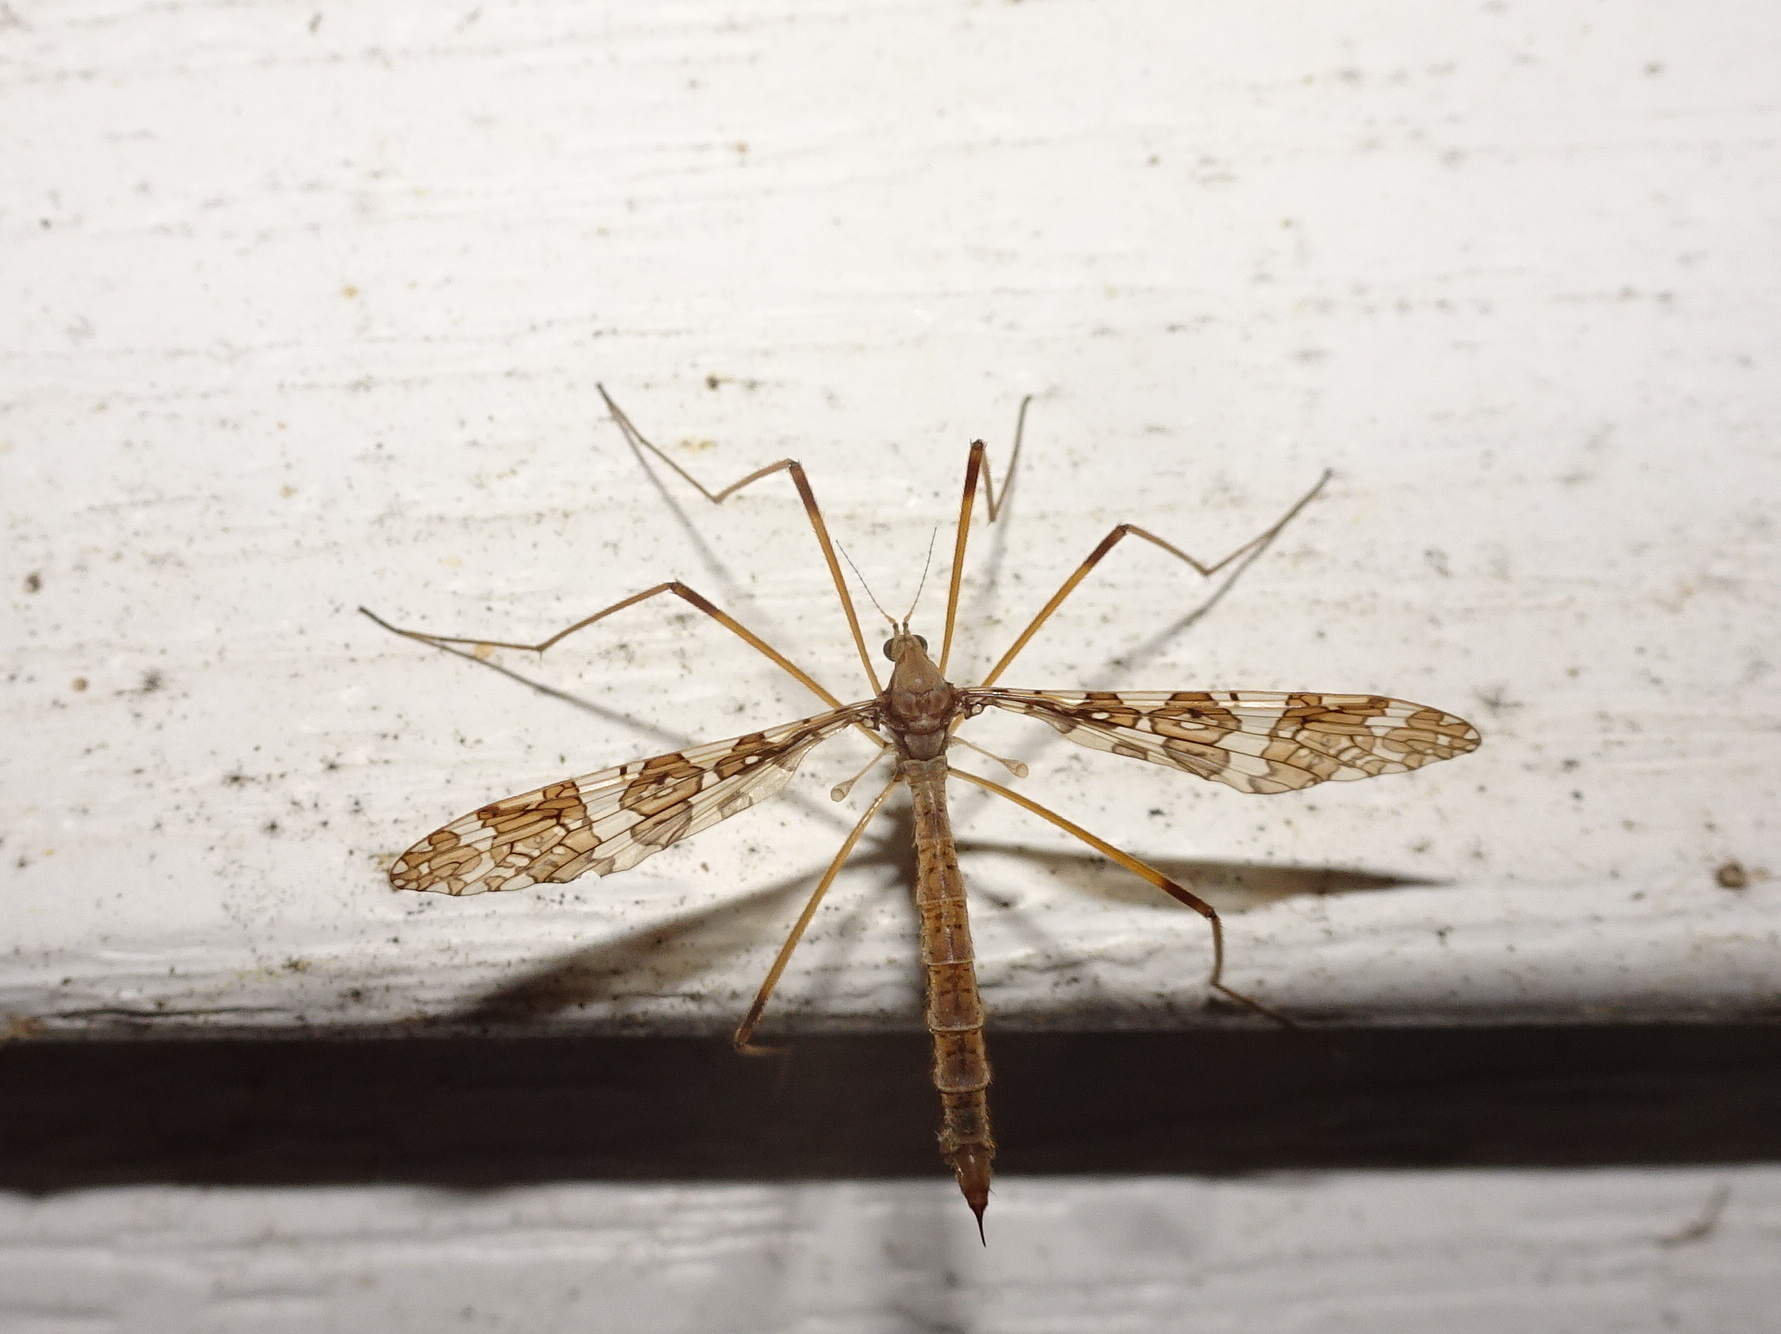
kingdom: Animalia
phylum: Arthropoda
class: Insecta
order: Diptera
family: Limoniidae
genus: Epiphragma
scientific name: Epiphragma fasciapenne
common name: Band-winged crane fly
